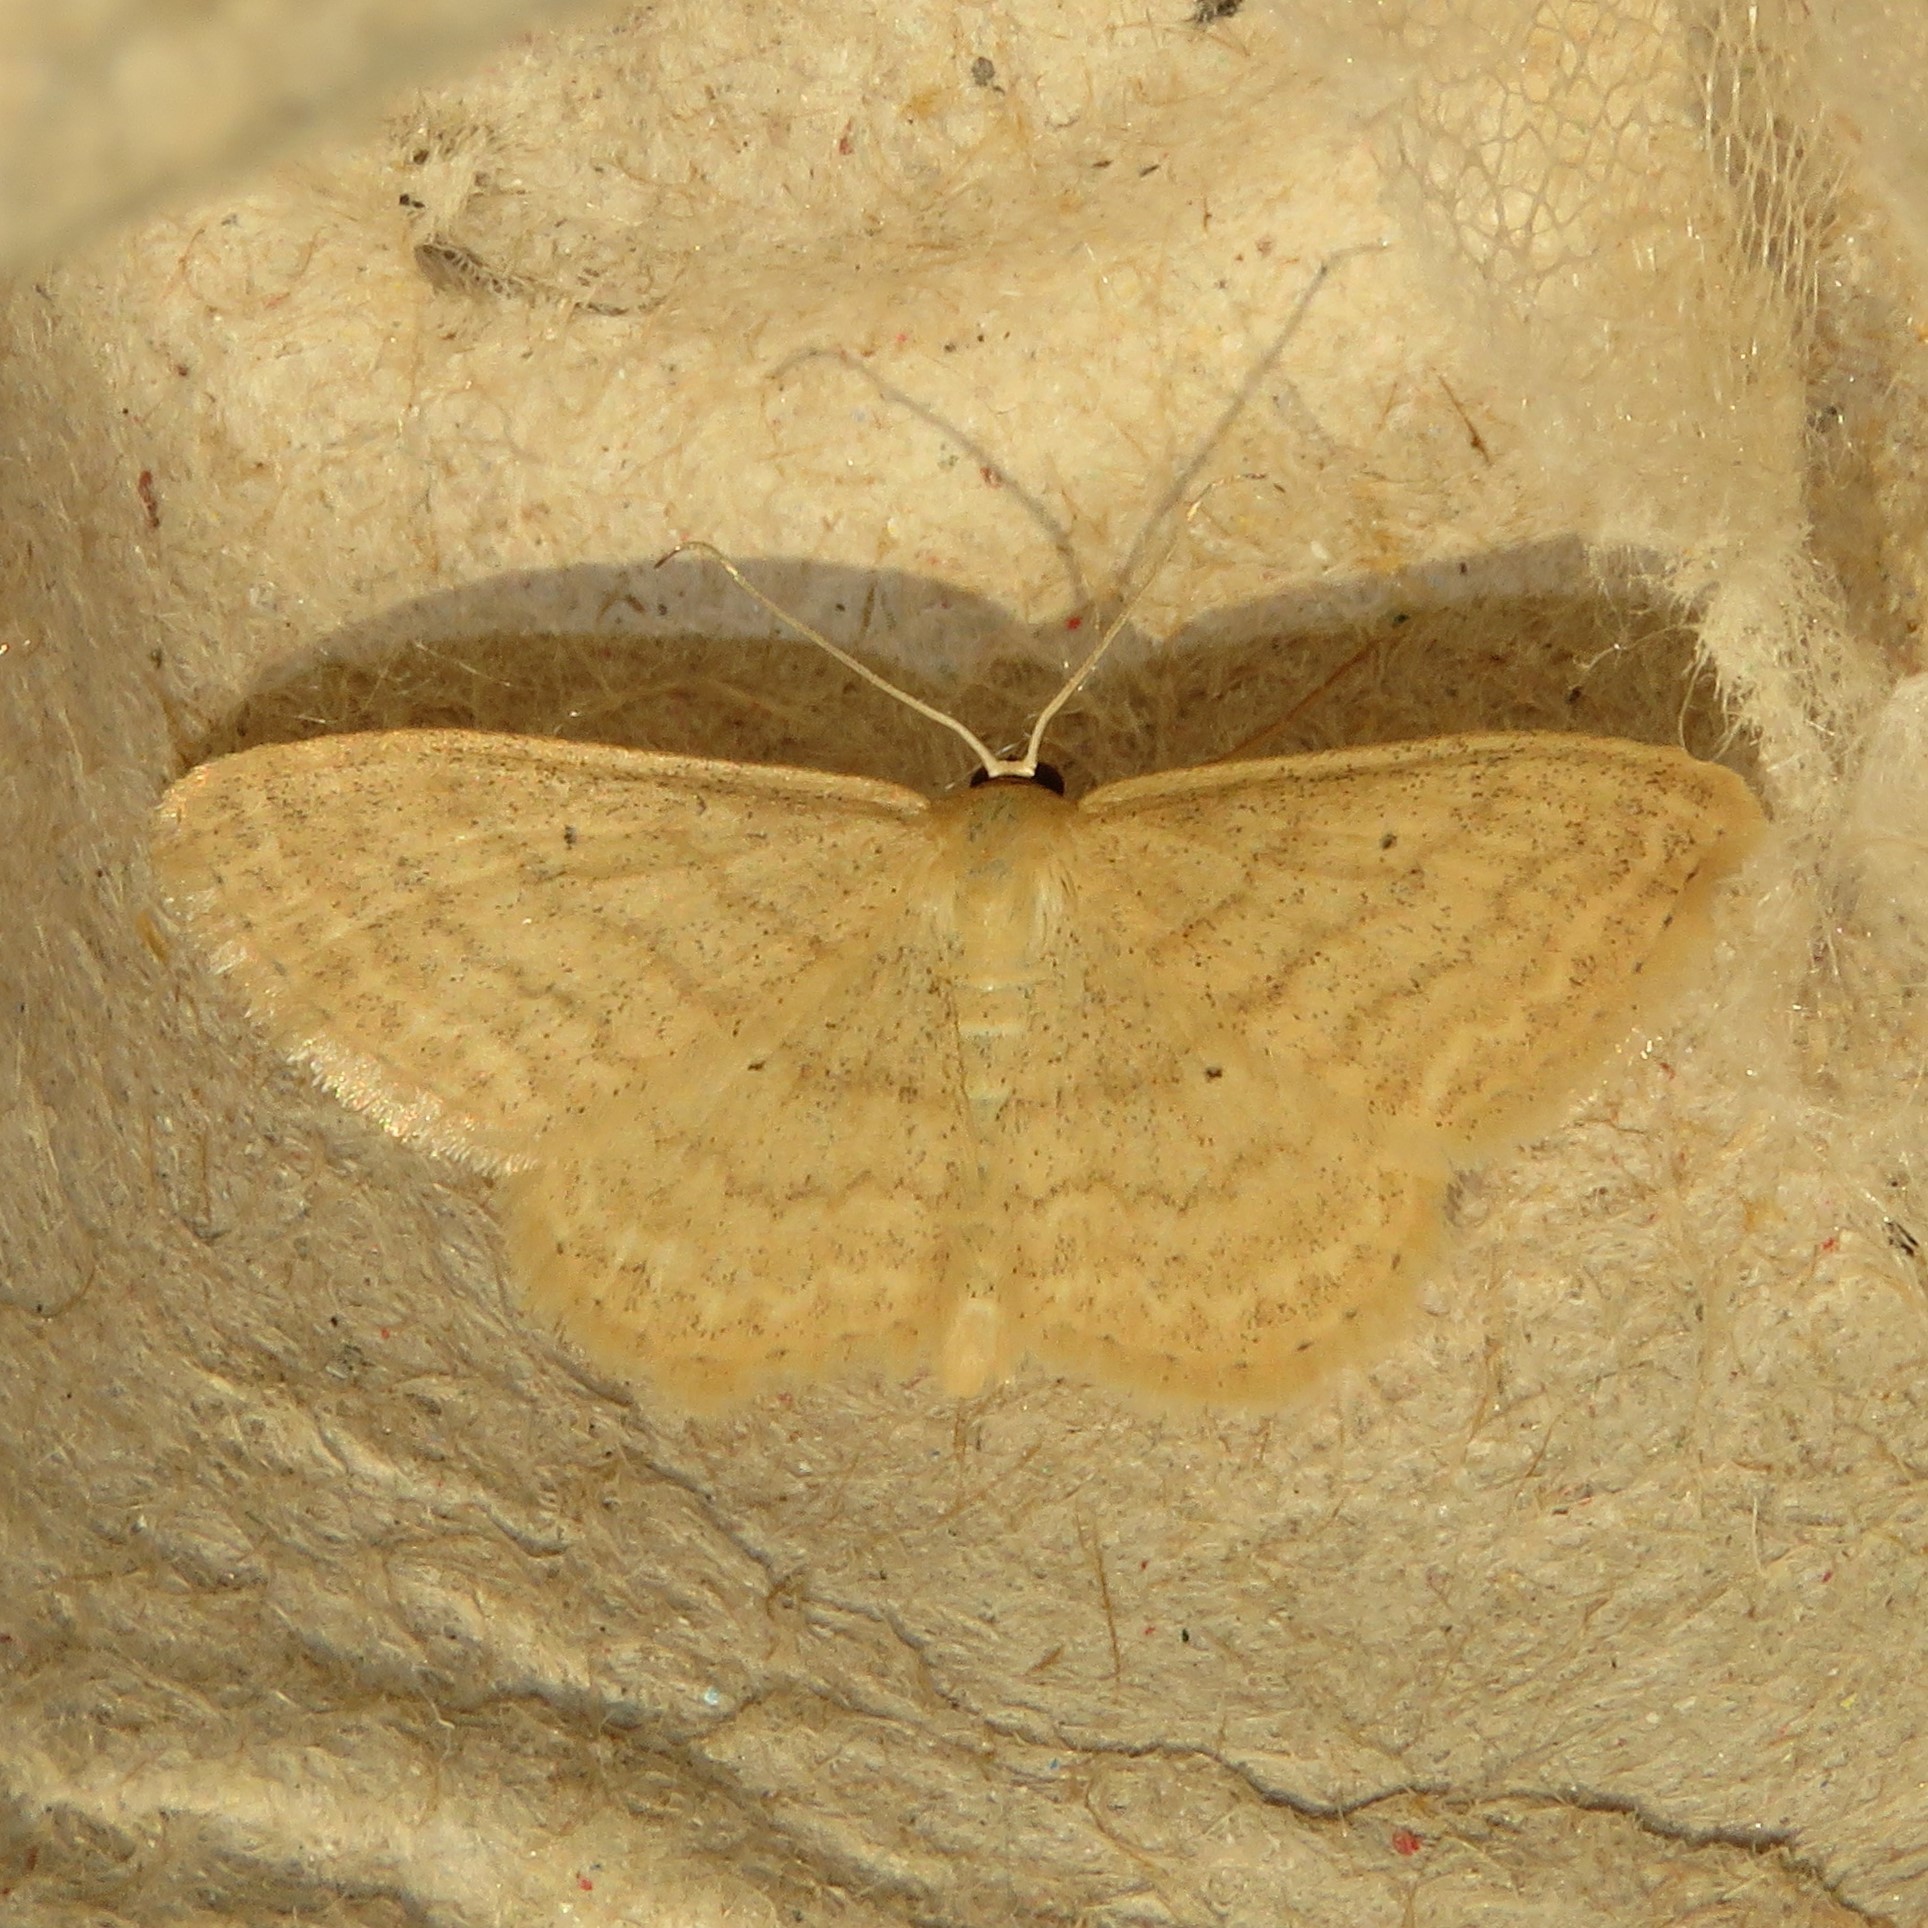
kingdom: Animalia
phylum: Arthropoda
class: Insecta
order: Lepidoptera
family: Geometridae
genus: Scopula
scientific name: Scopula inductata
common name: Soft-lined wave
